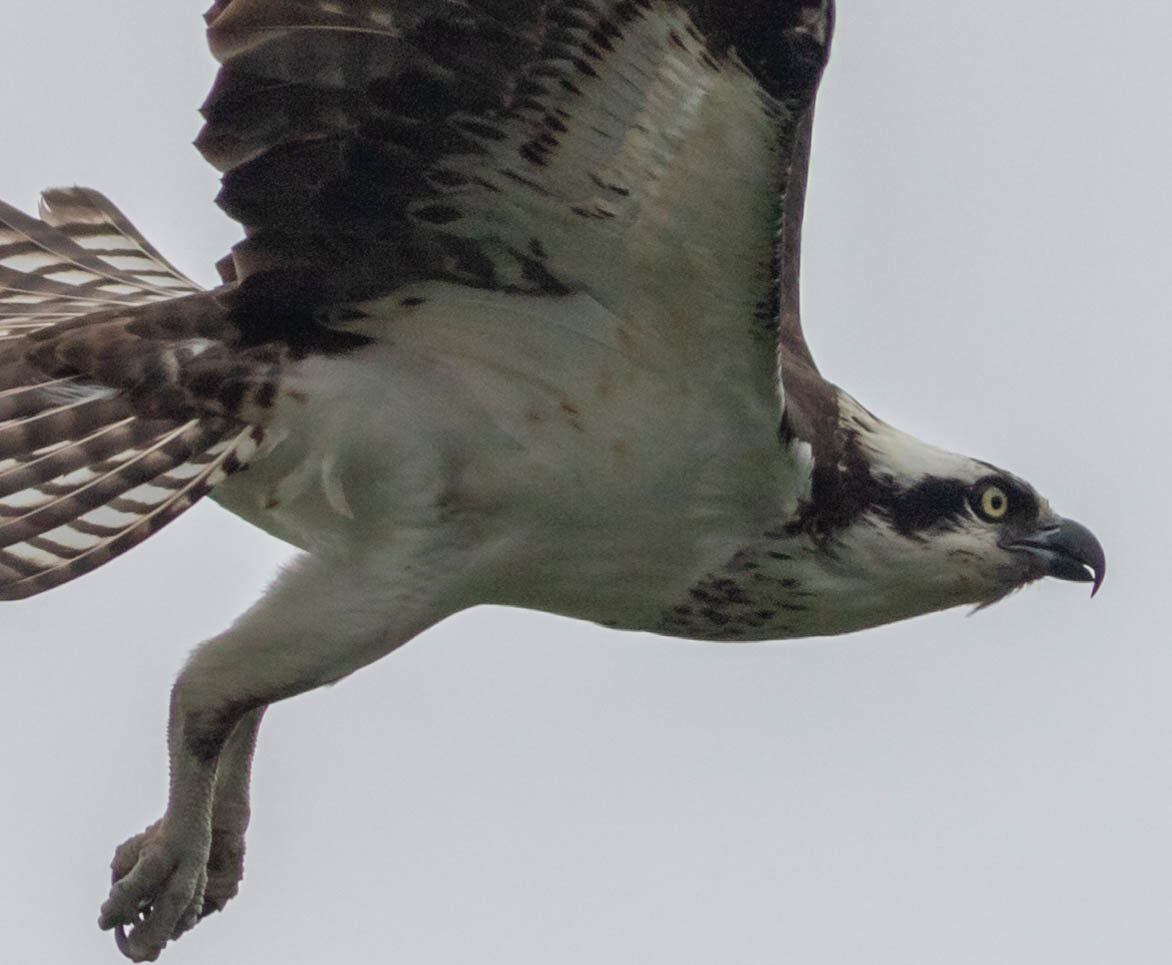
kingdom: Animalia
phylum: Chordata
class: Aves
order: Accipitriformes
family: Pandionidae
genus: Pandion
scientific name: Pandion haliaetus
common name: Osprey
